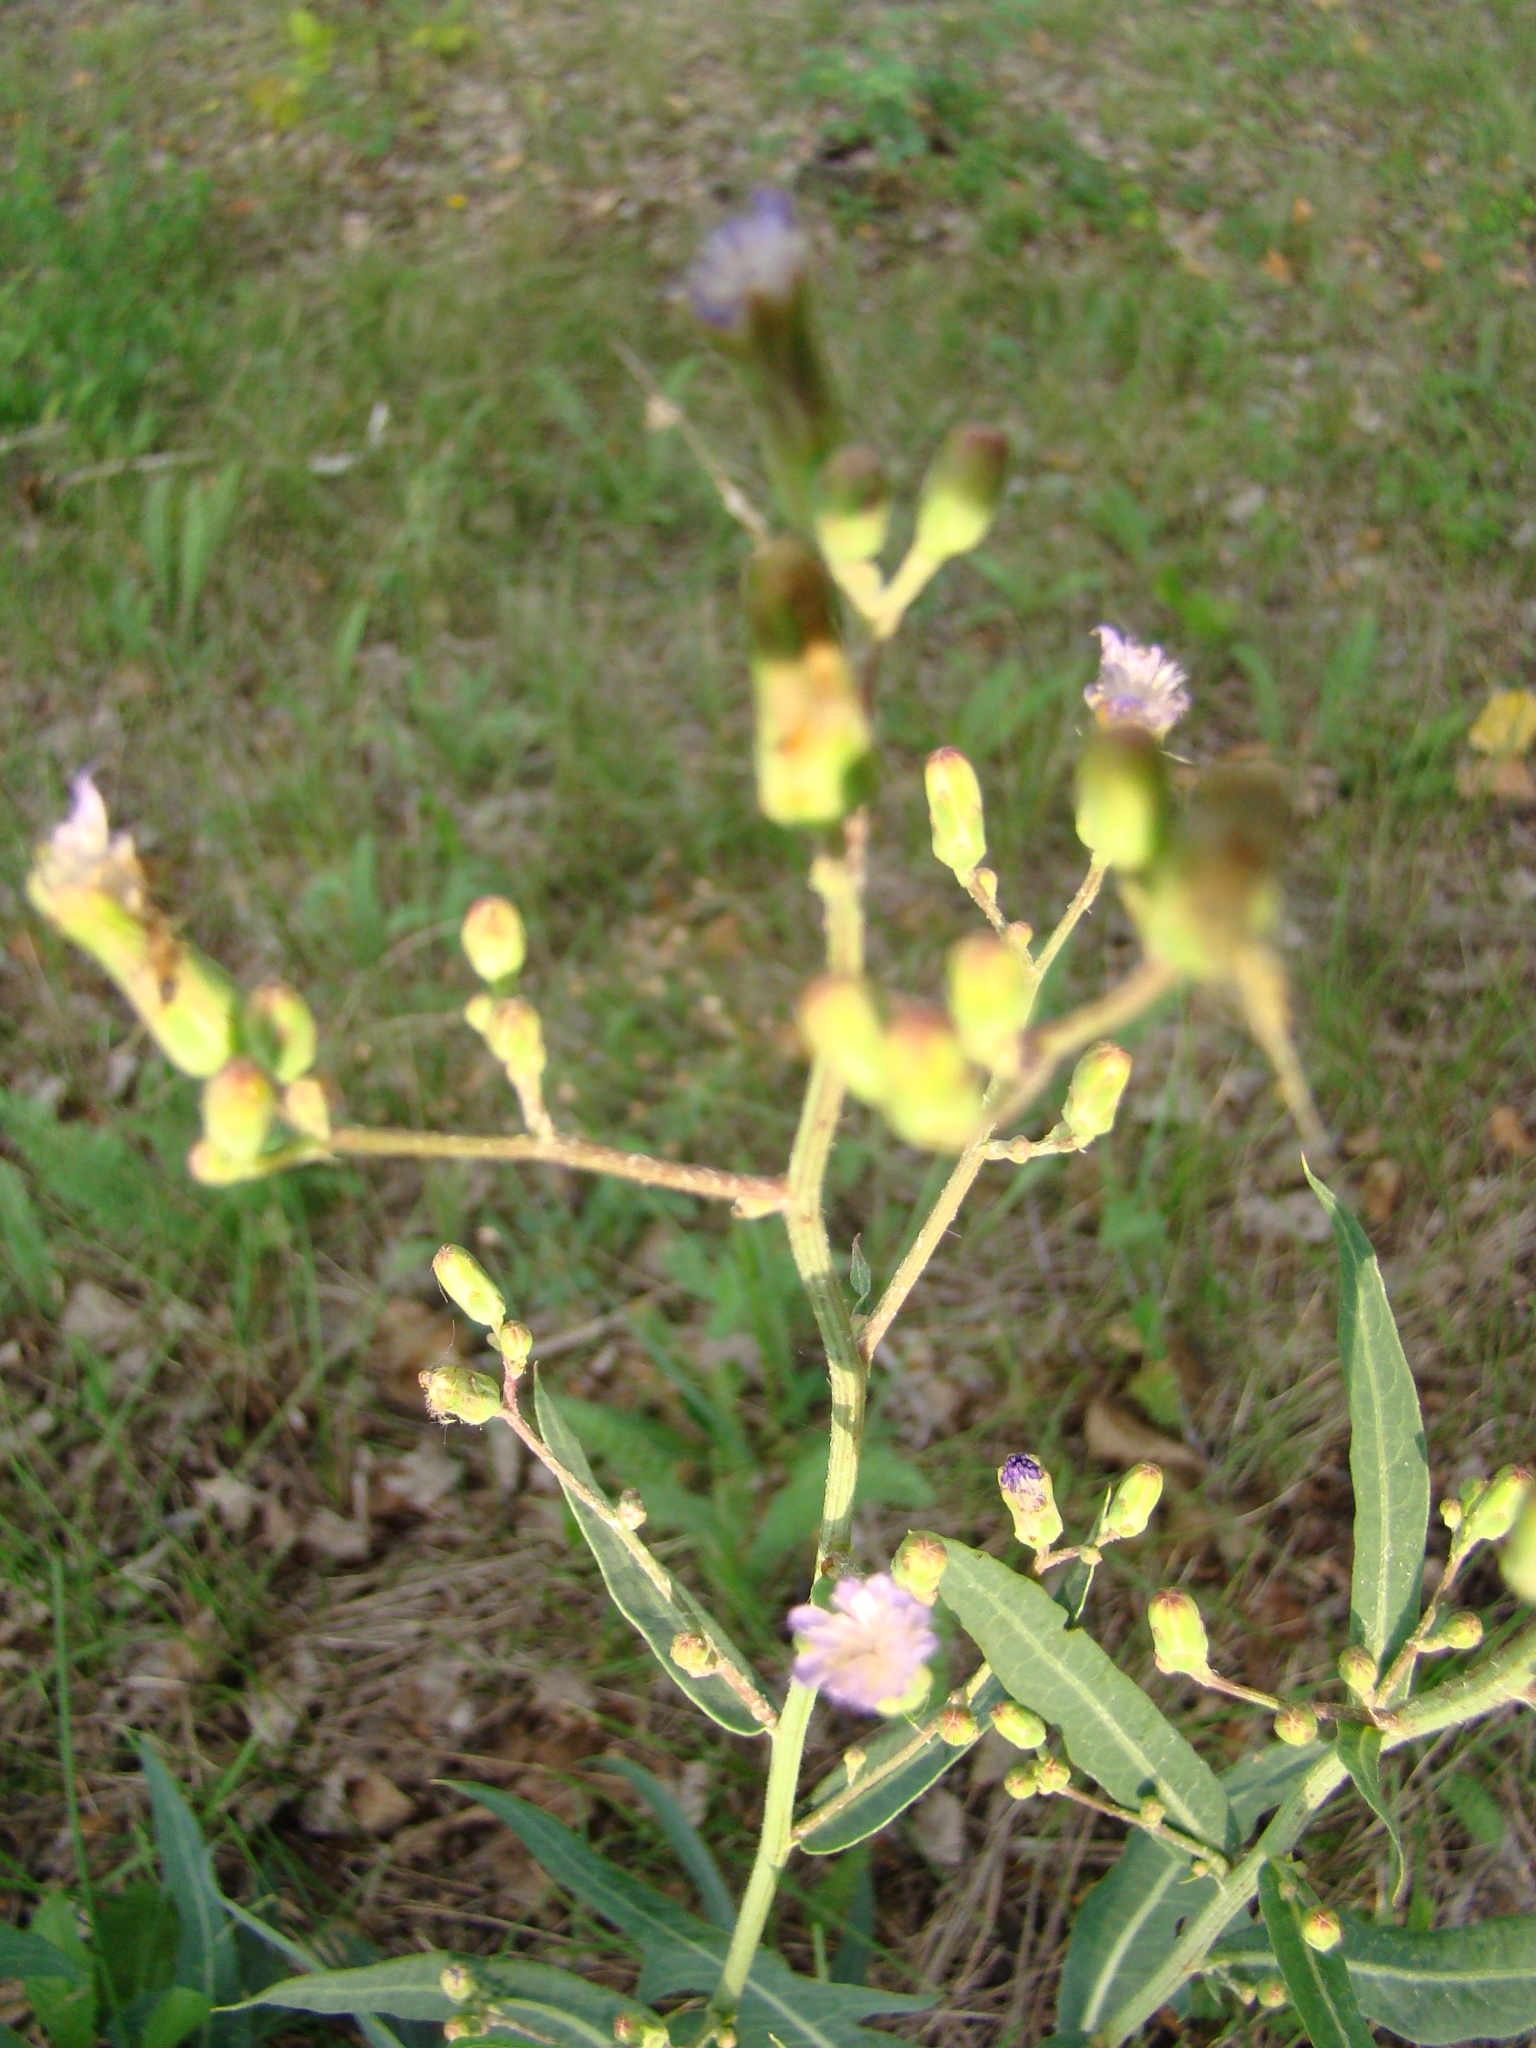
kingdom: Plantae
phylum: Tracheophyta
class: Magnoliopsida
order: Asterales
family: Asteraceae
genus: Lactuca
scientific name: Lactuca tatarica
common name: Blue lettuce
